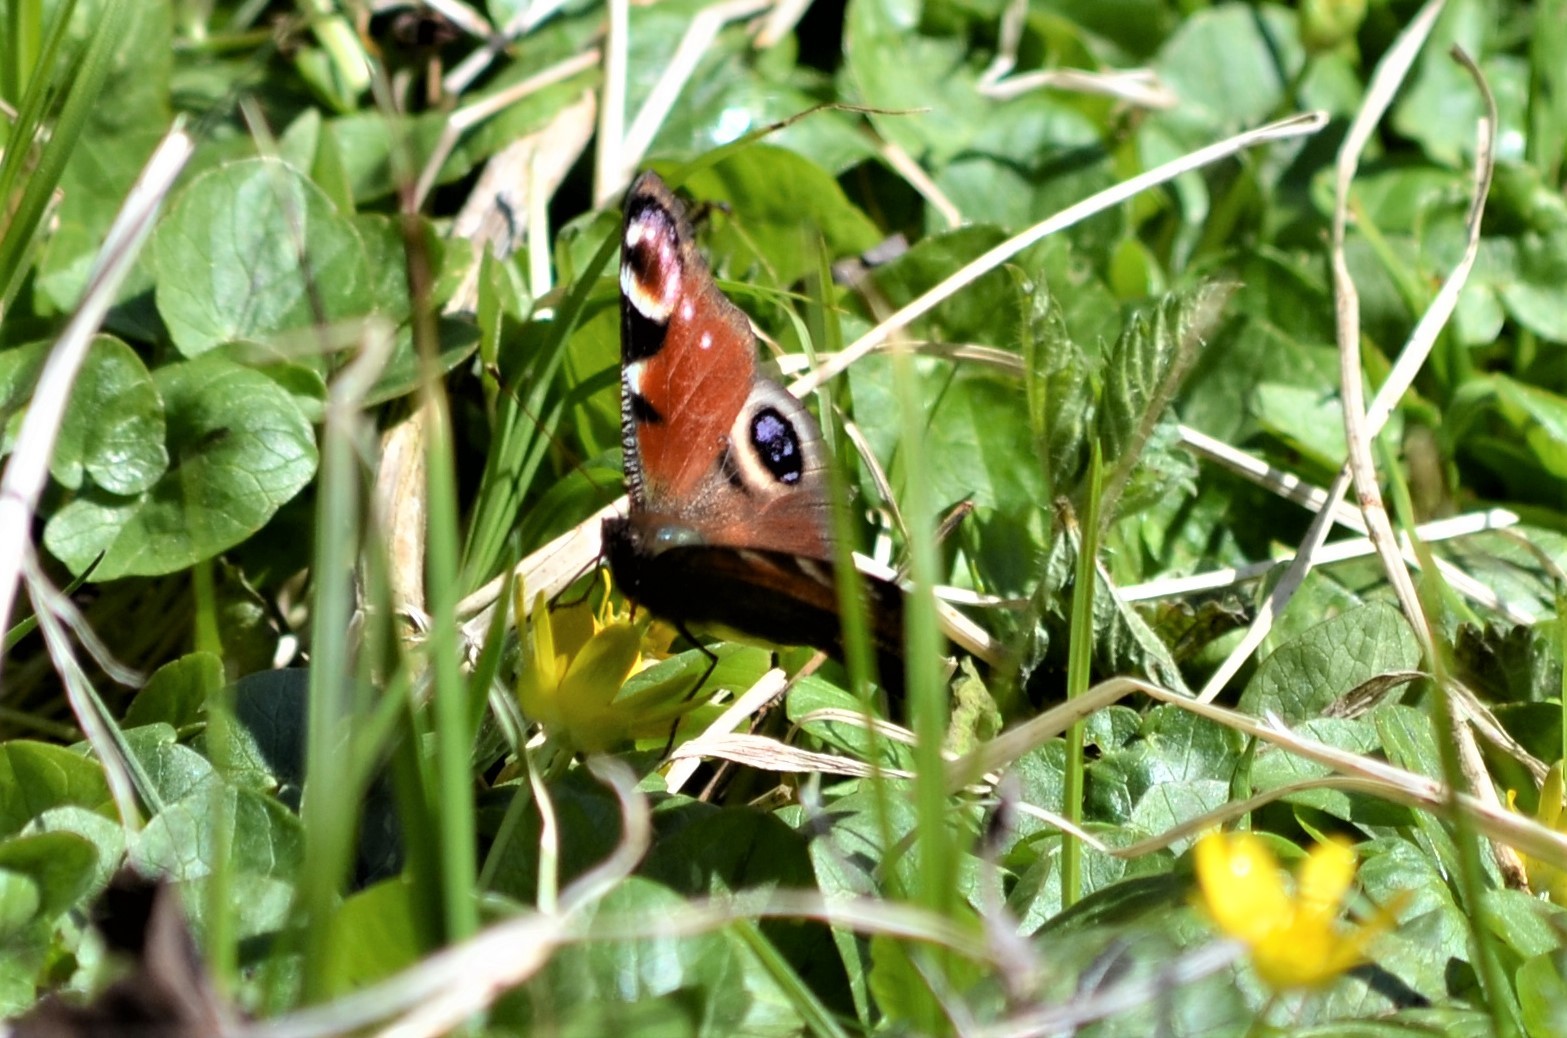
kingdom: Animalia
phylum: Arthropoda
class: Insecta
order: Lepidoptera
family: Nymphalidae
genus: Aglais
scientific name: Aglais io
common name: Peacock
